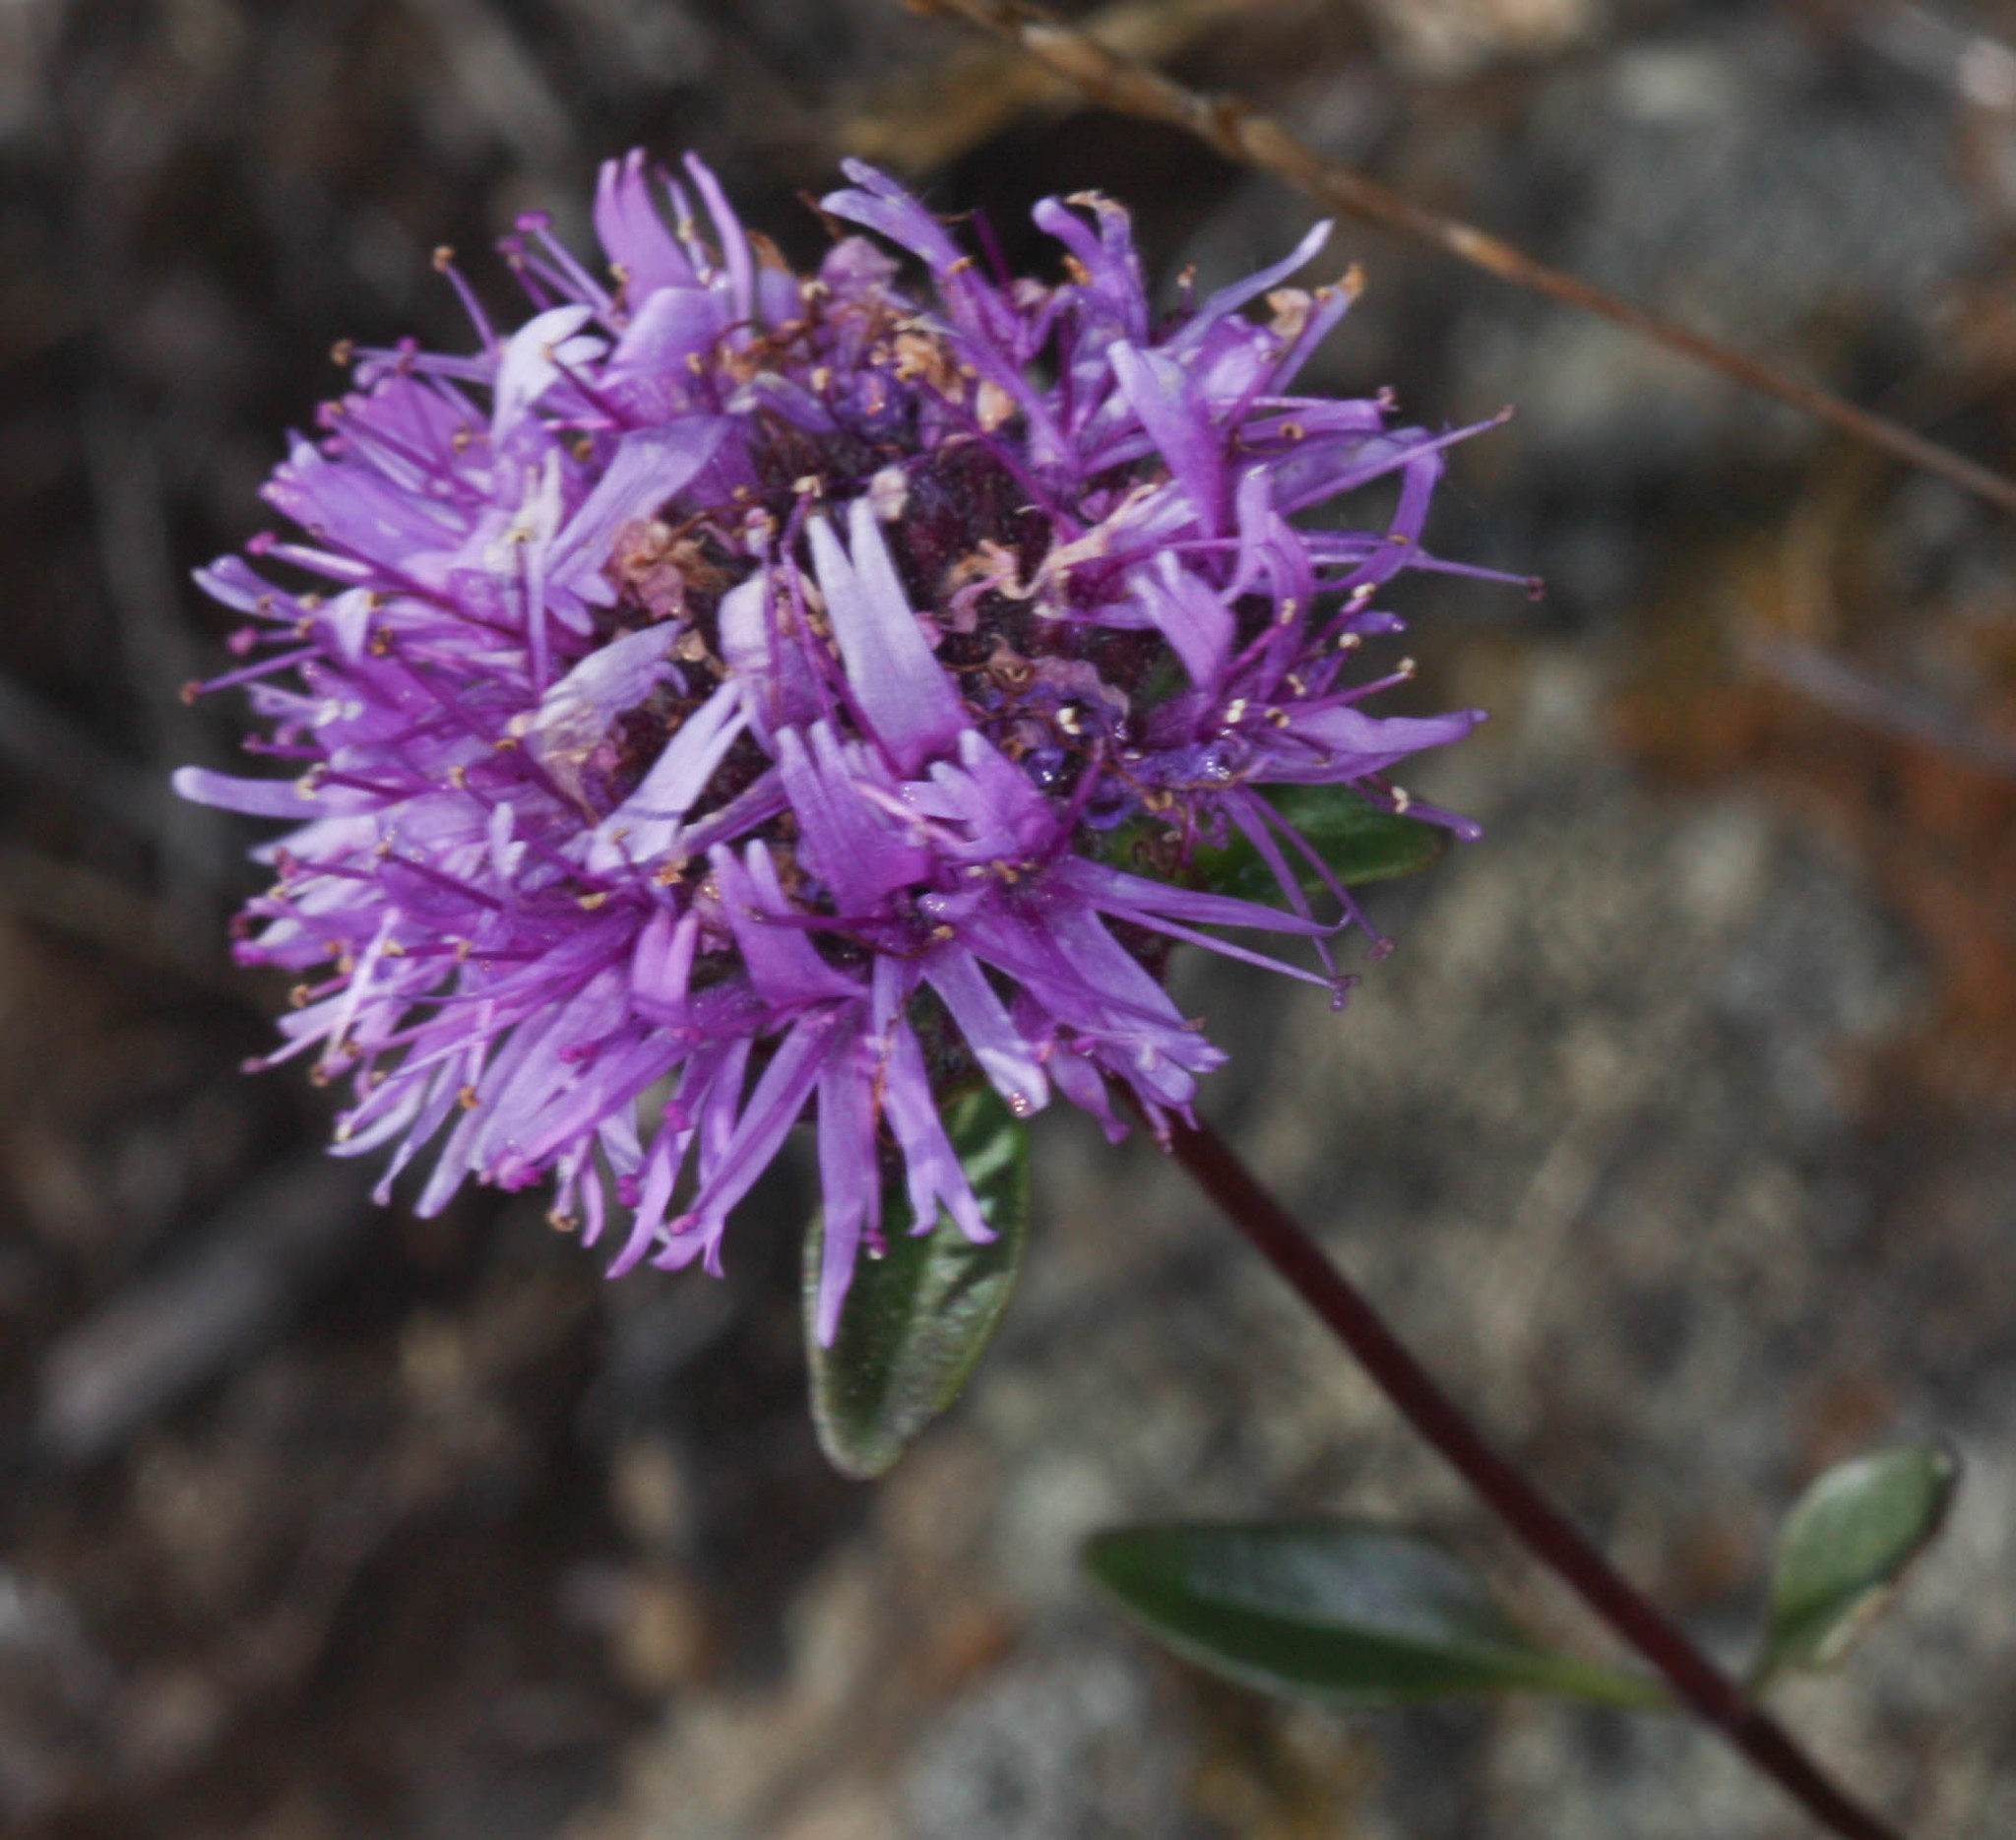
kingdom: Plantae
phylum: Tracheophyta
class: Magnoliopsida
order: Lamiales
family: Lamiaceae
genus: Monardella
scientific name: Monardella purpurea
